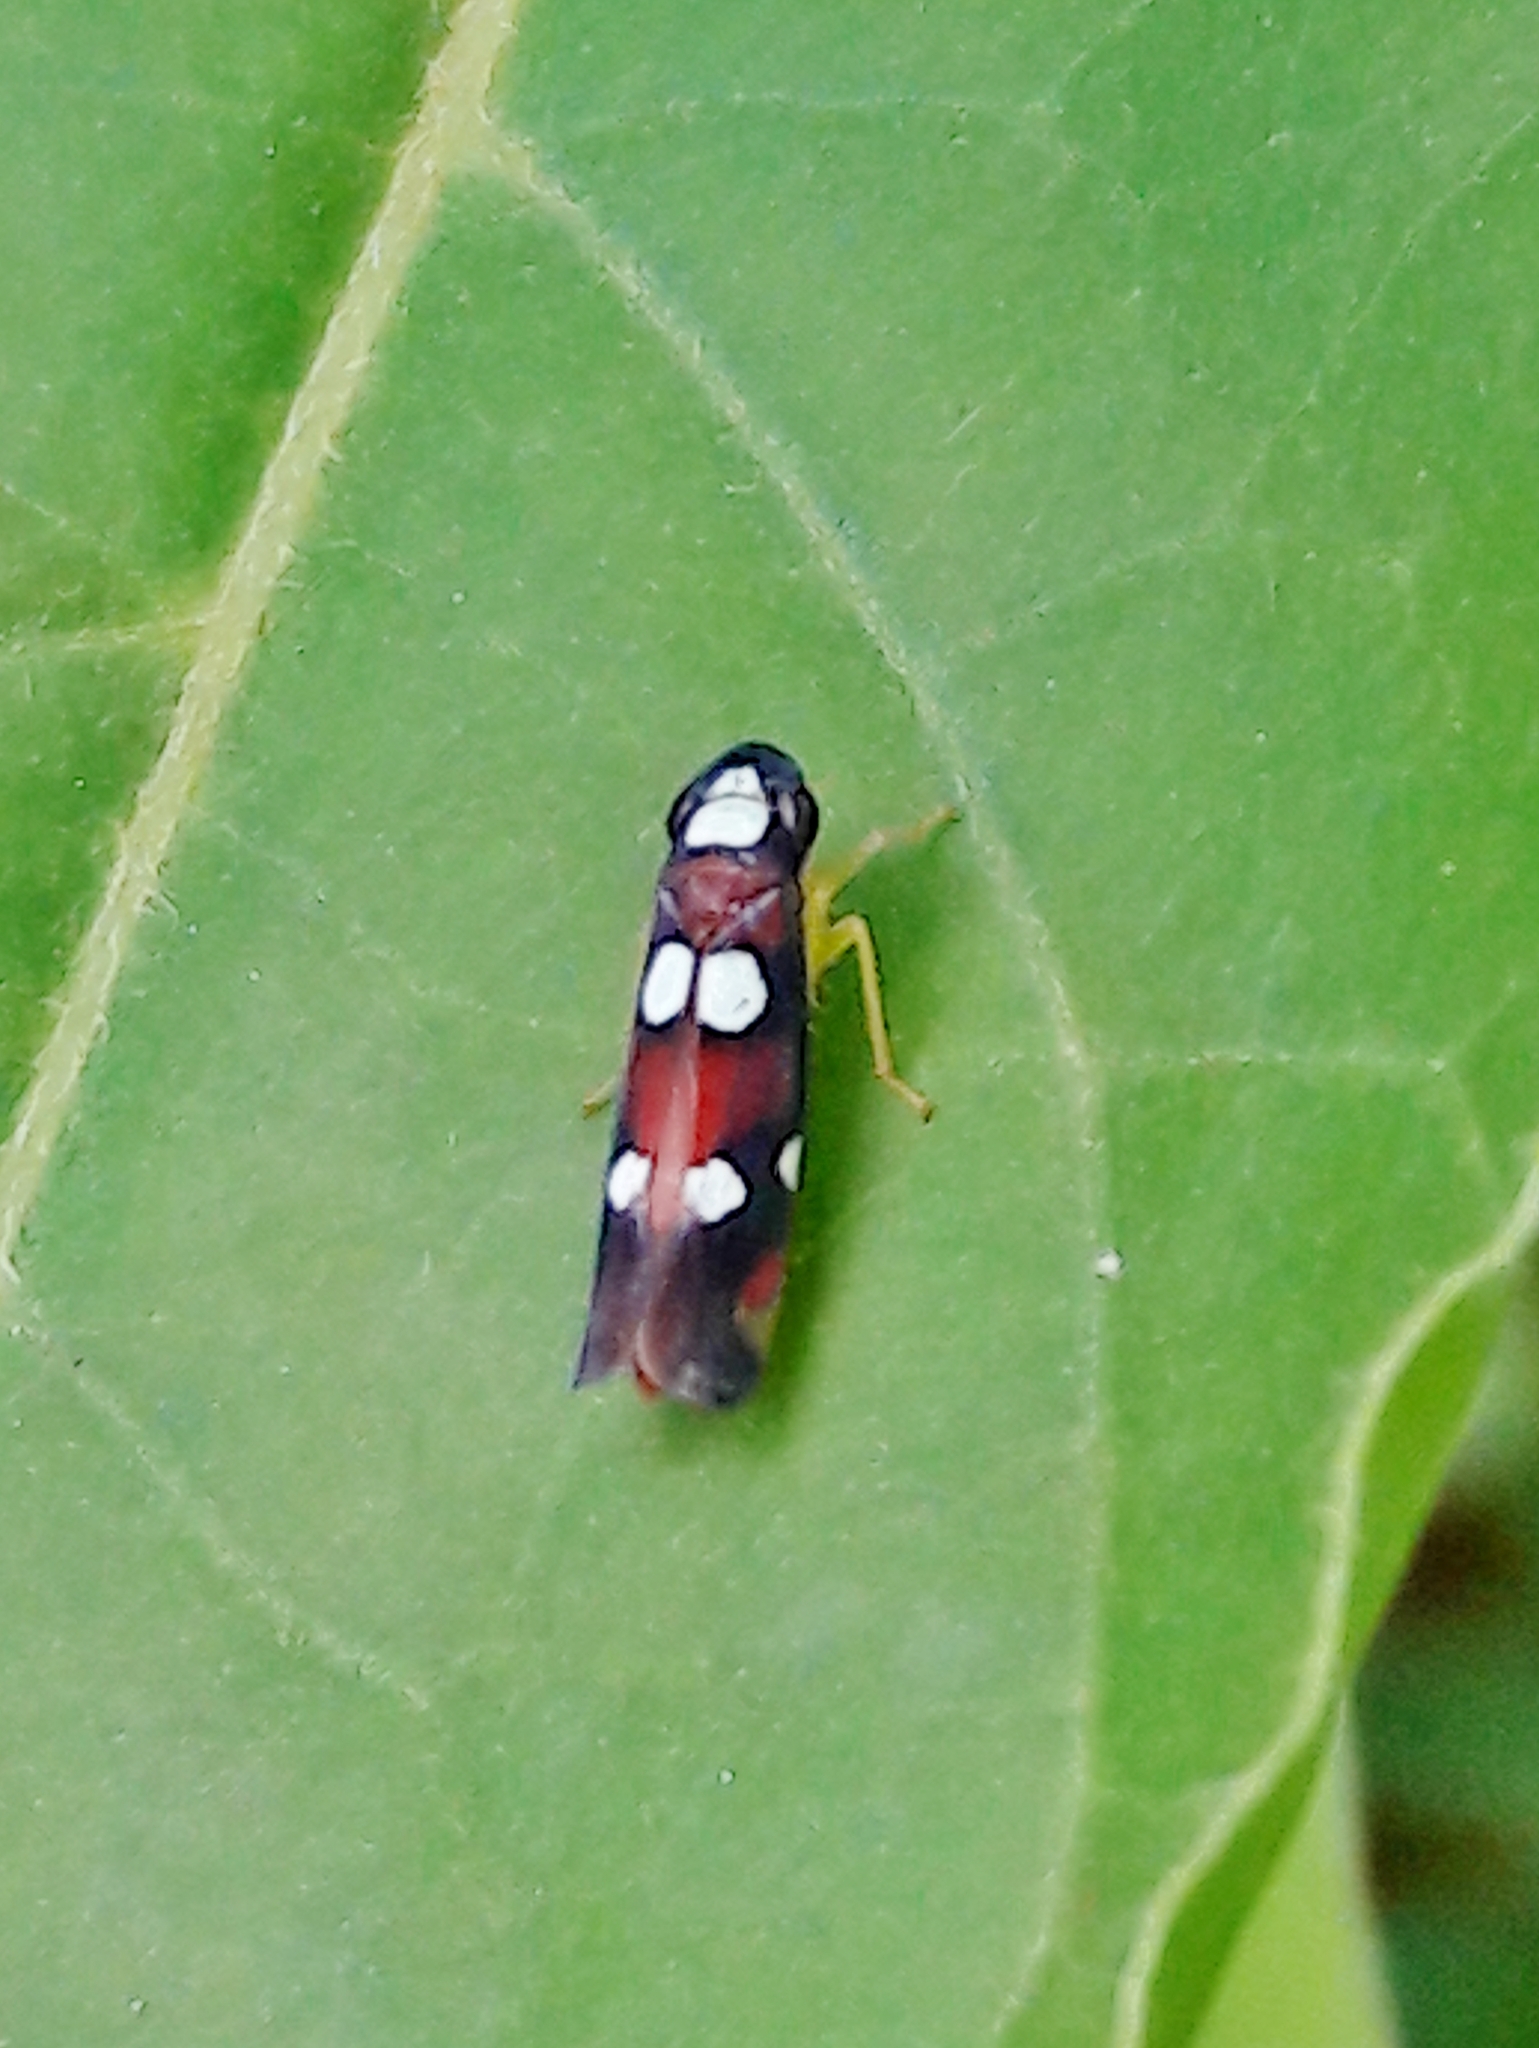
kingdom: Animalia
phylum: Arthropoda
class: Insecta
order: Hemiptera
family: Cicadellidae
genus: Erythrogonia
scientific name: Erythrogonia comensa
